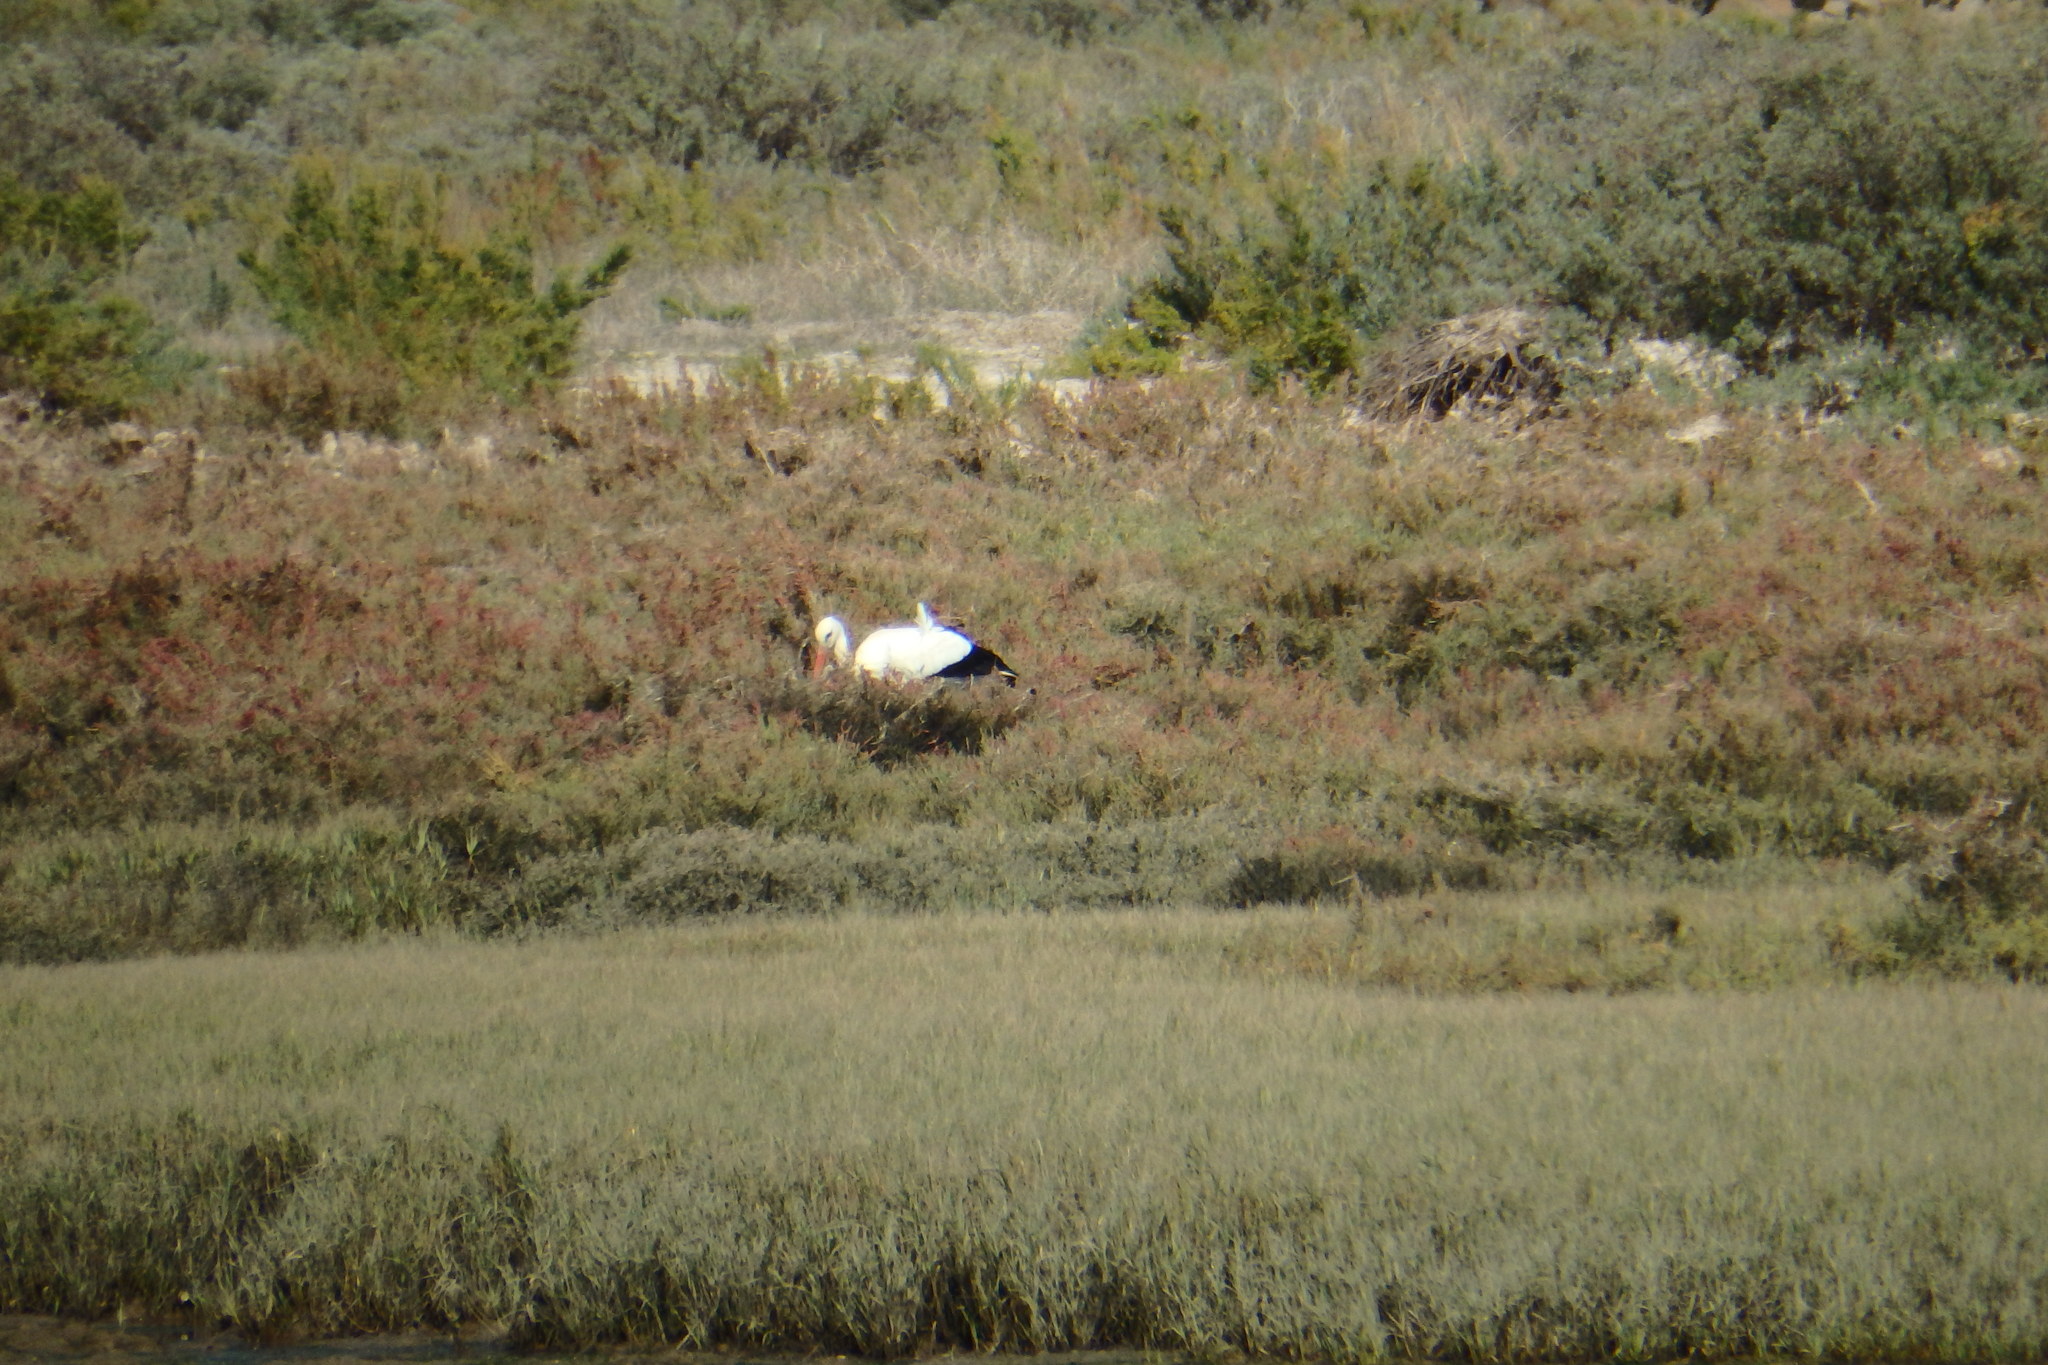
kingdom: Animalia
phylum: Chordata
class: Aves
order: Ciconiiformes
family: Ciconiidae
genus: Ciconia
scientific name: Ciconia ciconia
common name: White stork
